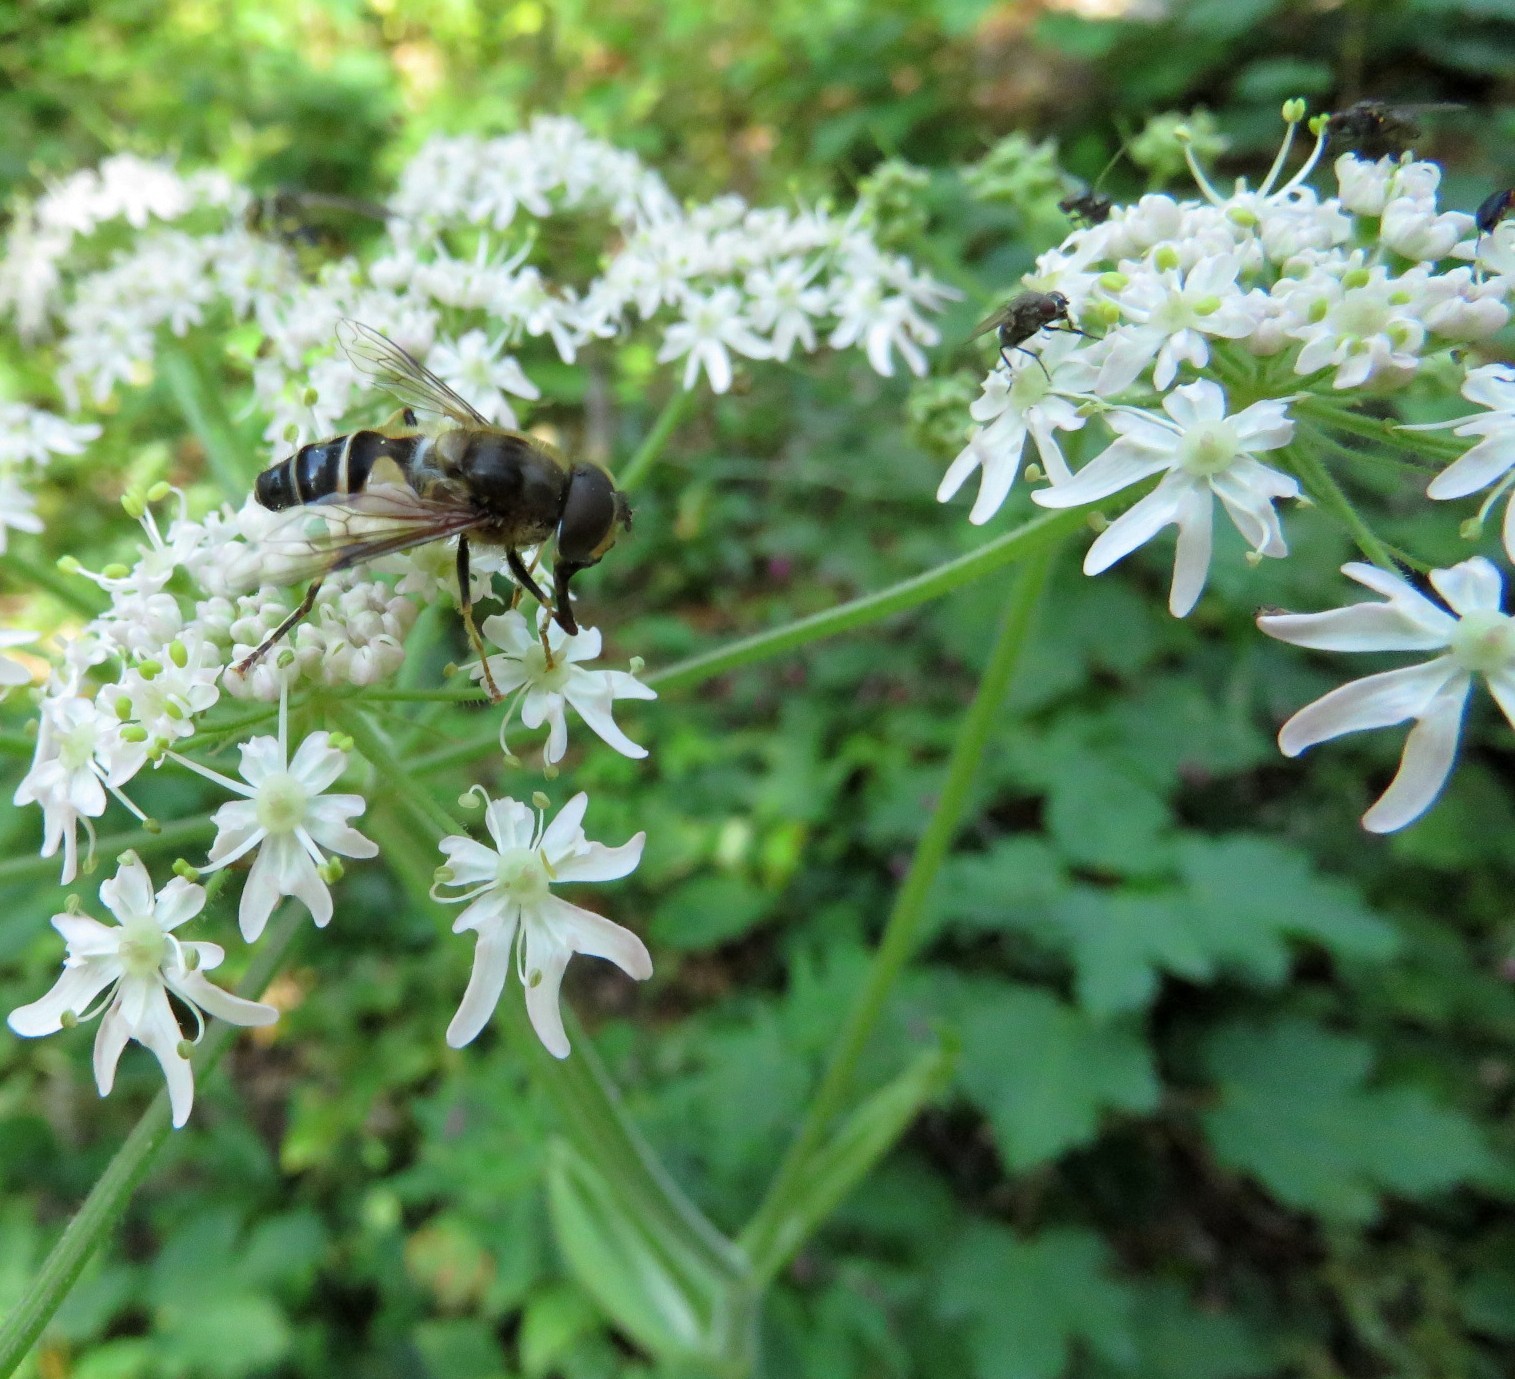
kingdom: Animalia
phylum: Arthropoda
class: Insecta
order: Diptera
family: Syrphidae
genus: Eristalis
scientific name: Eristalis pertinax
